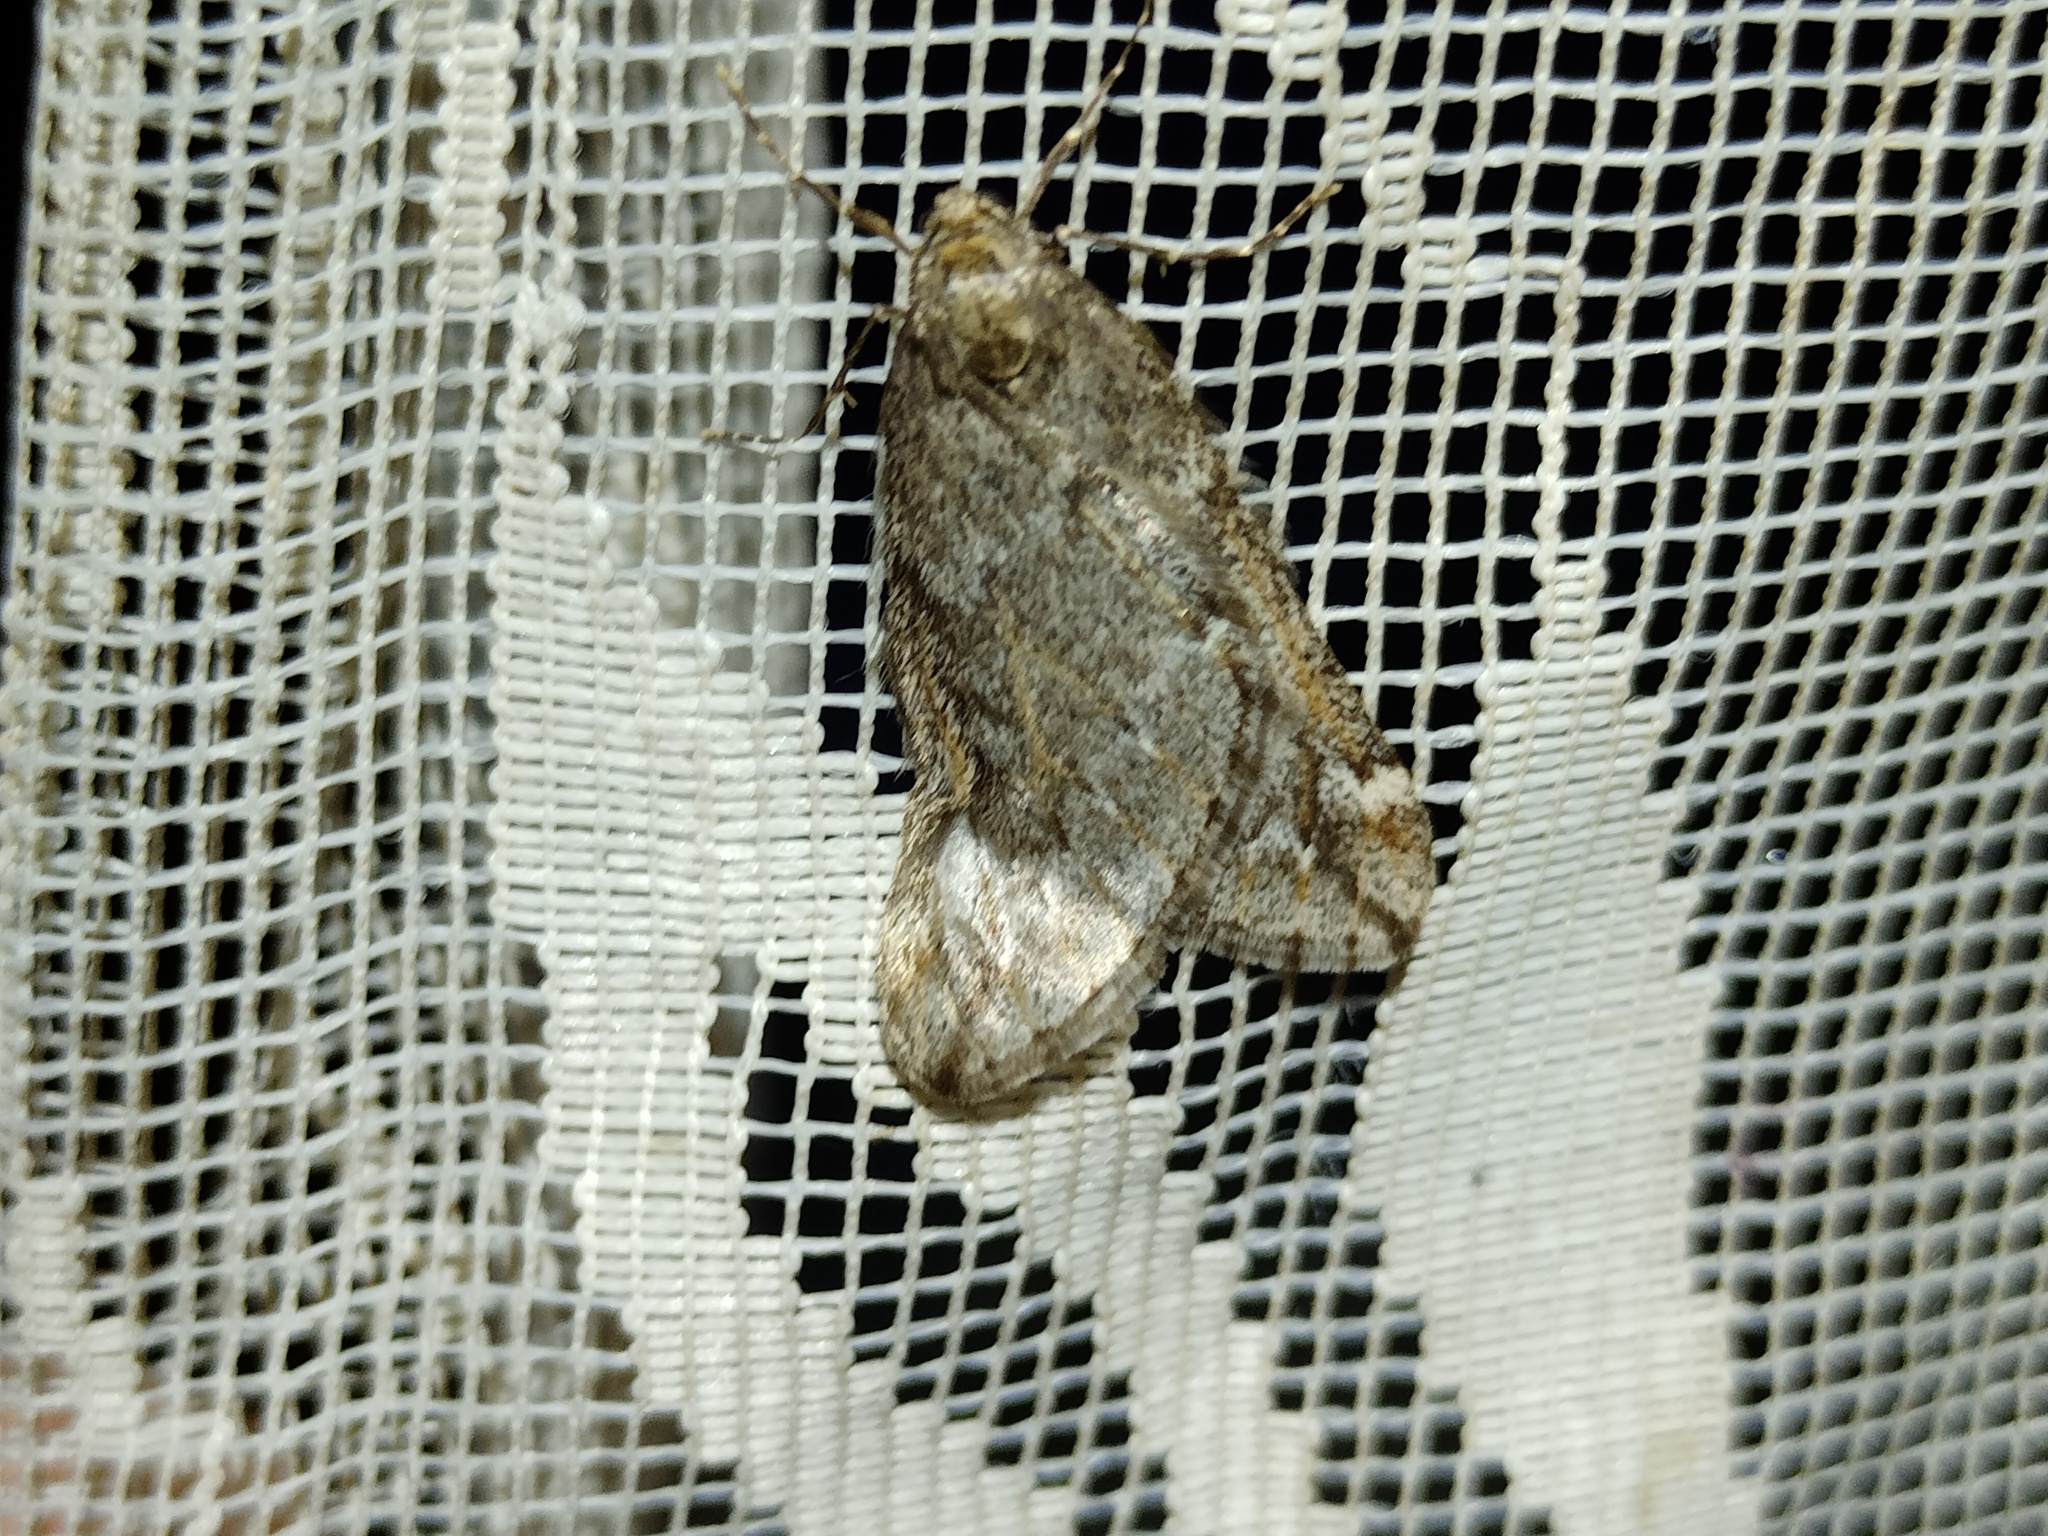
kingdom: Animalia
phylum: Arthropoda
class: Insecta
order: Lepidoptera
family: Geometridae
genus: Alsophila
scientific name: Alsophila aescularia
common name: March moth
